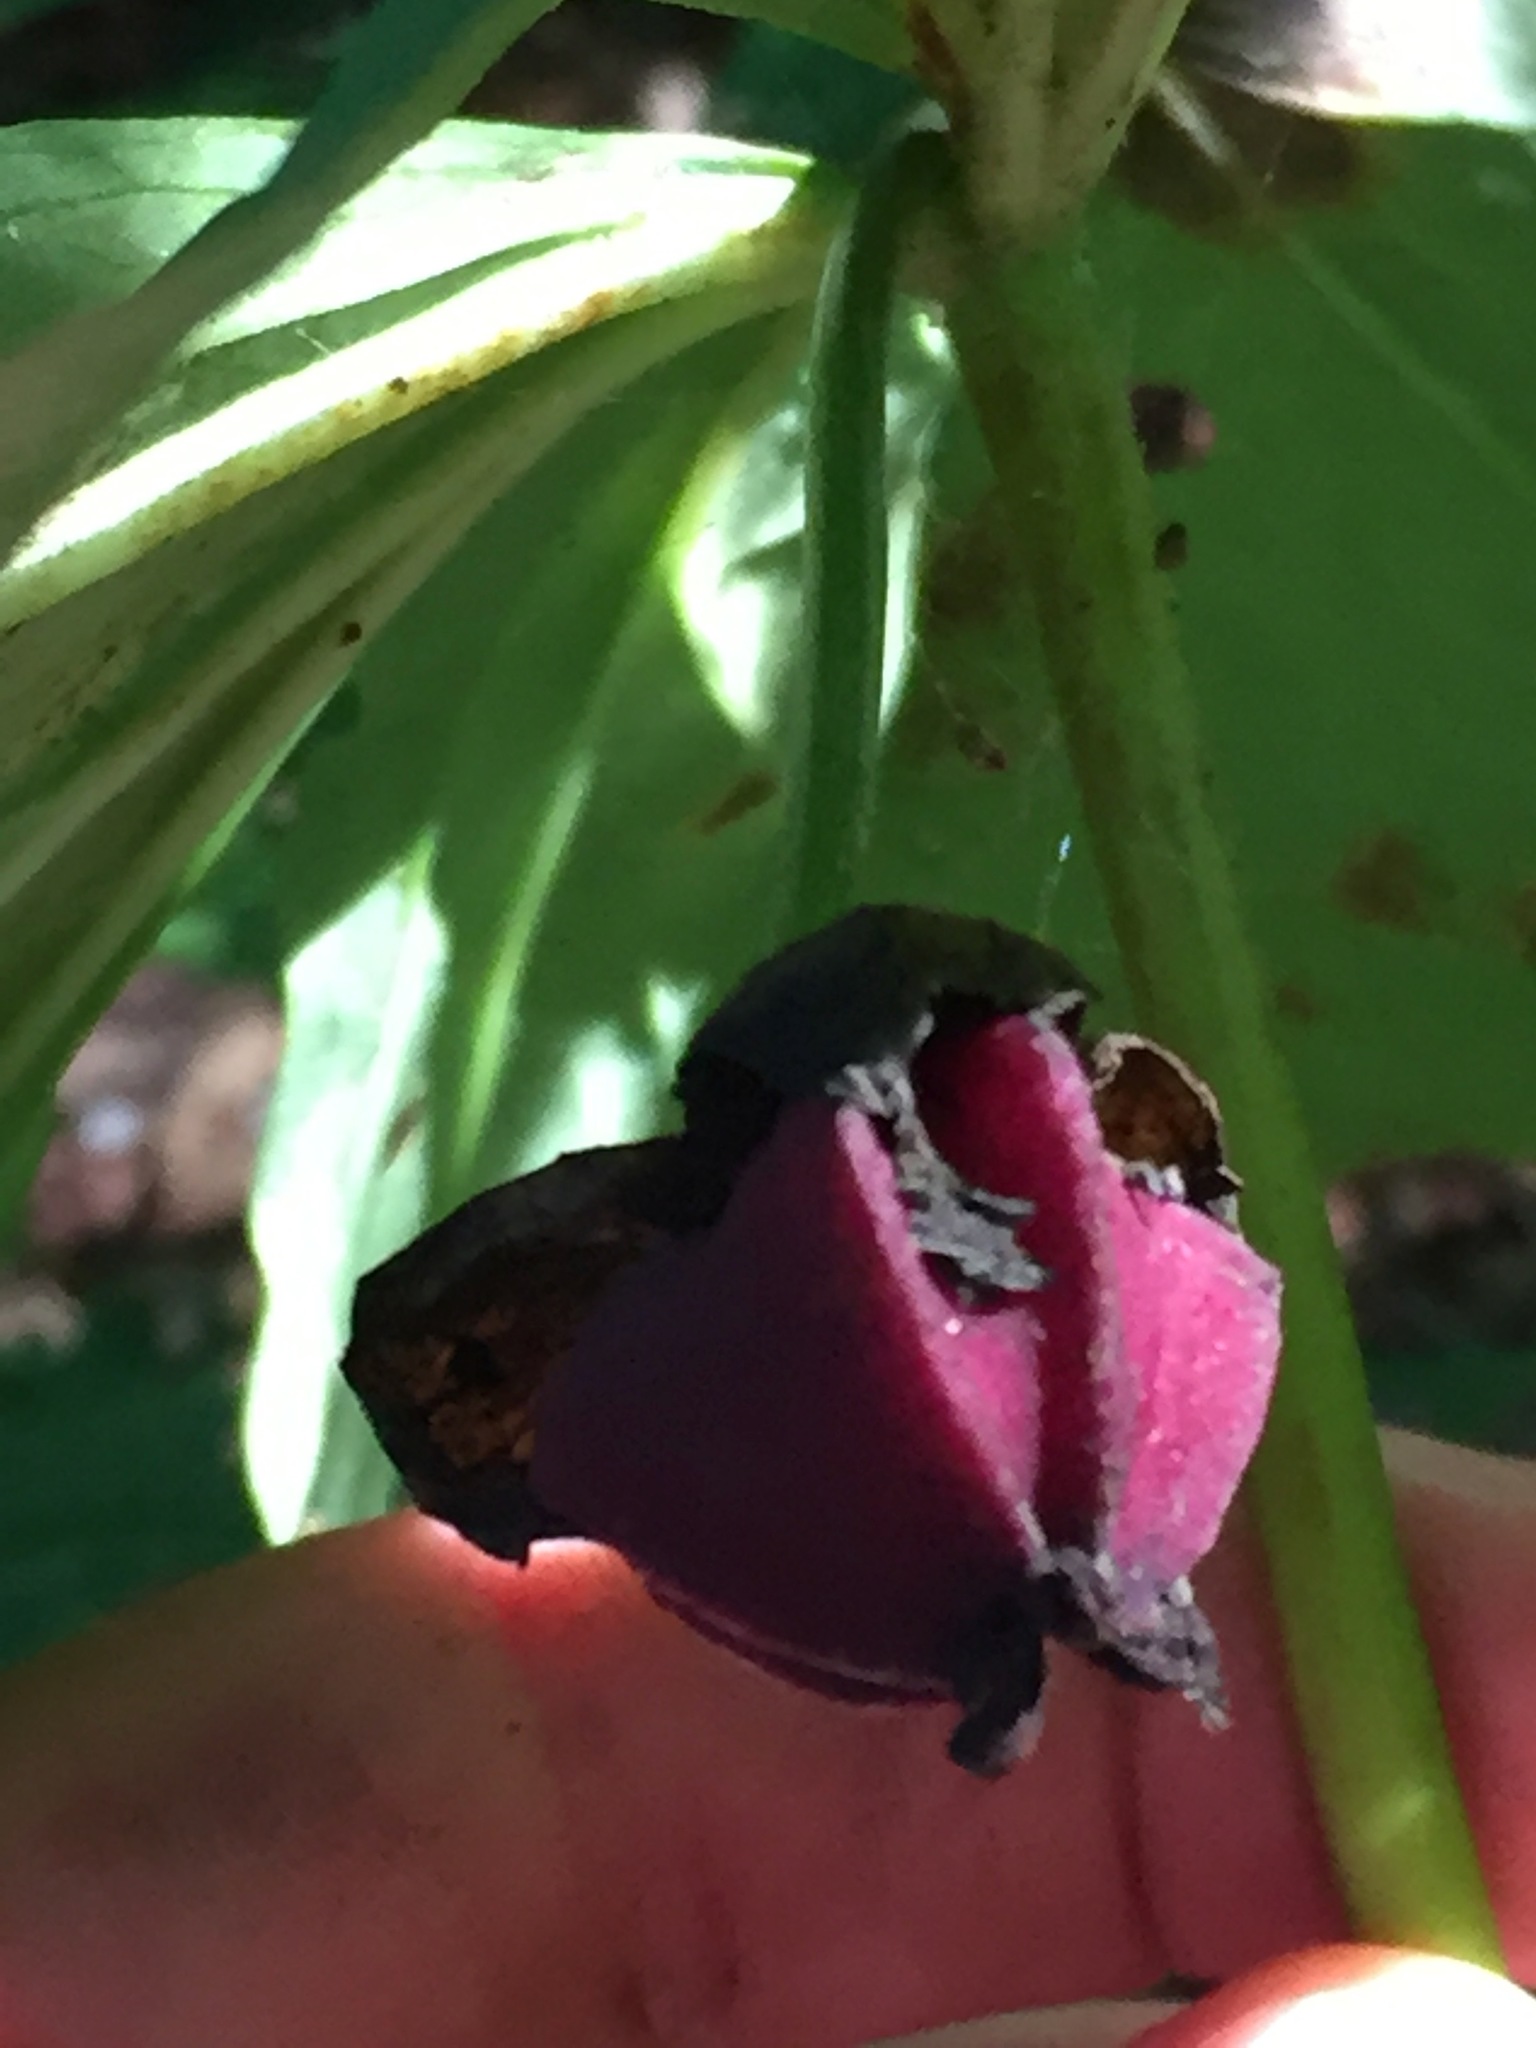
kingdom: Plantae
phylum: Tracheophyta
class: Liliopsida
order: Liliales
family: Melanthiaceae
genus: Trillium
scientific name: Trillium erectum
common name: Purple trillium
